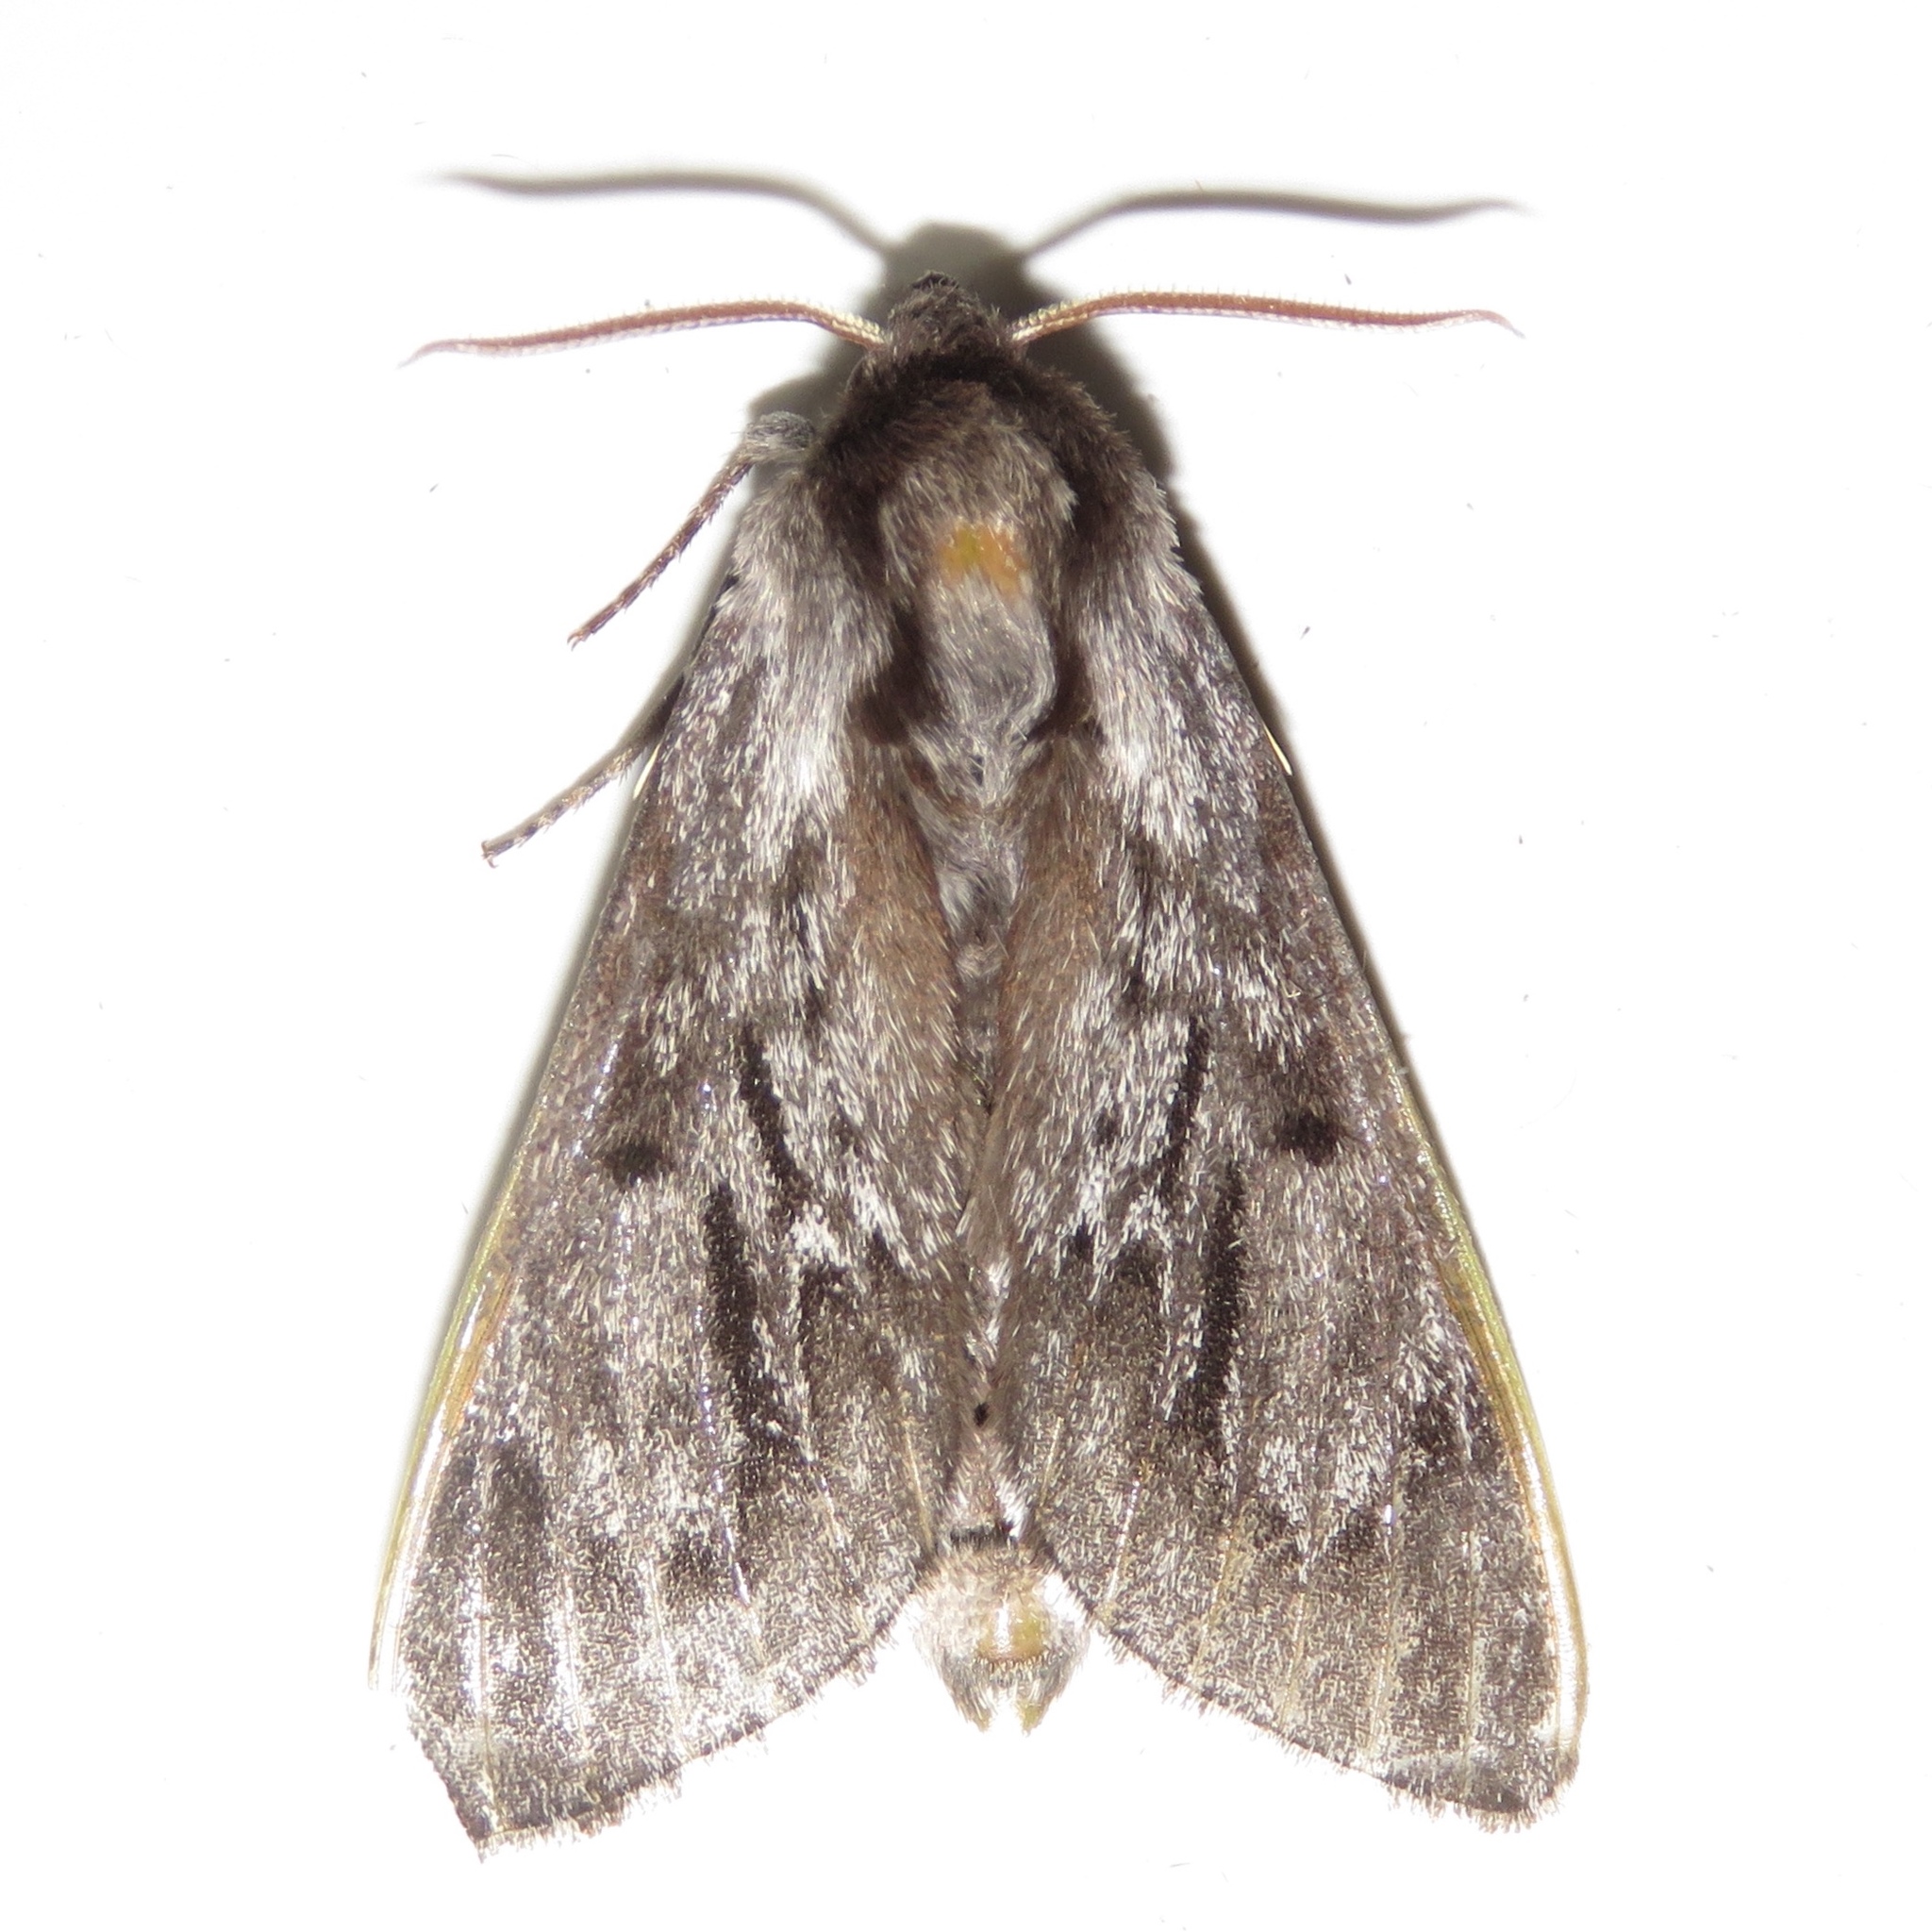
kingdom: Animalia
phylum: Arthropoda
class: Insecta
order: Lepidoptera
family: Sphingidae
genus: Lapara
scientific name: Lapara bombycoides
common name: Northern pine sphinx
